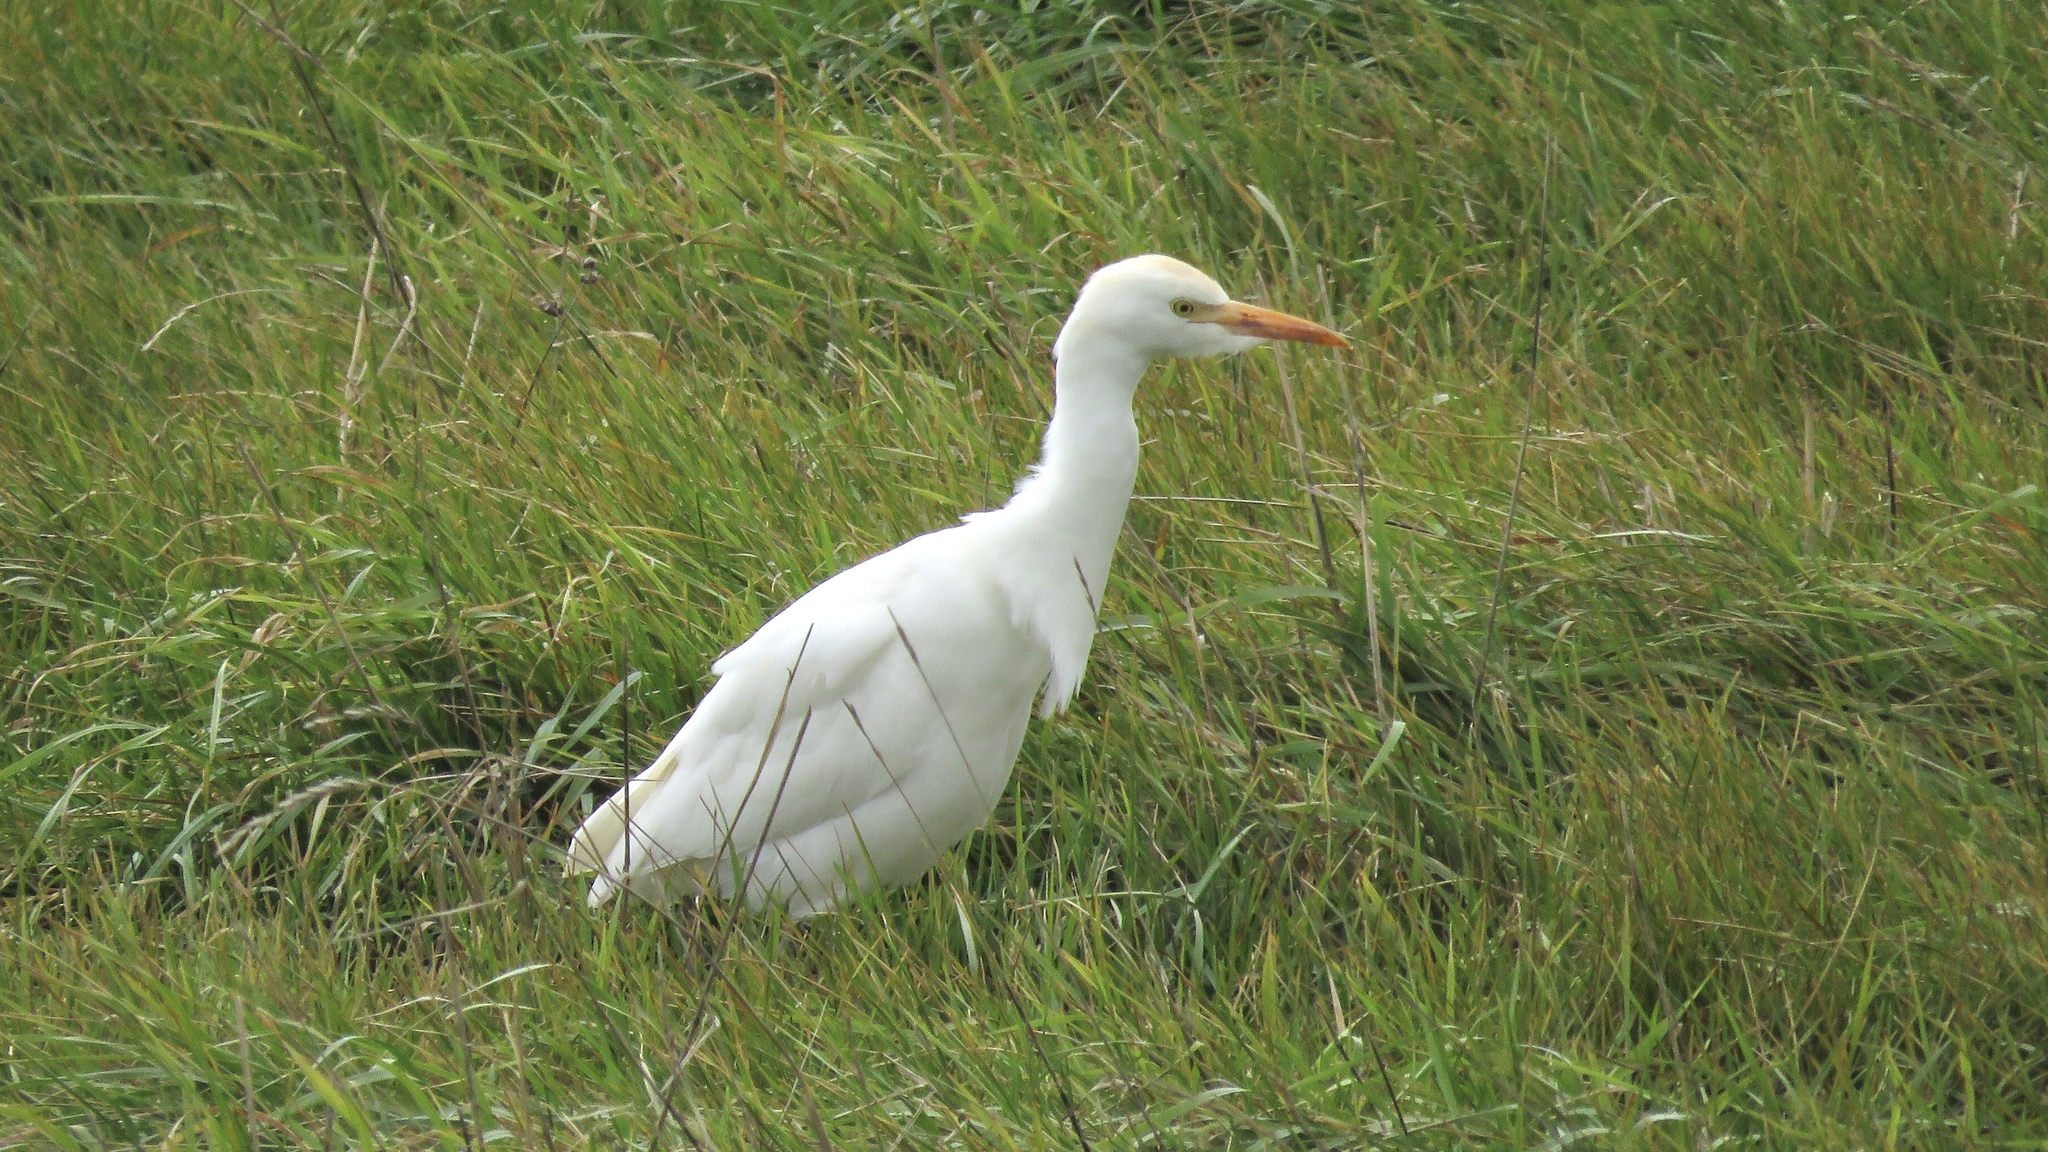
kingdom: Animalia
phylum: Chordata
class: Aves
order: Pelecaniformes
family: Ardeidae
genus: Bubulcus
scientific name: Bubulcus ibis
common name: Cattle egret
